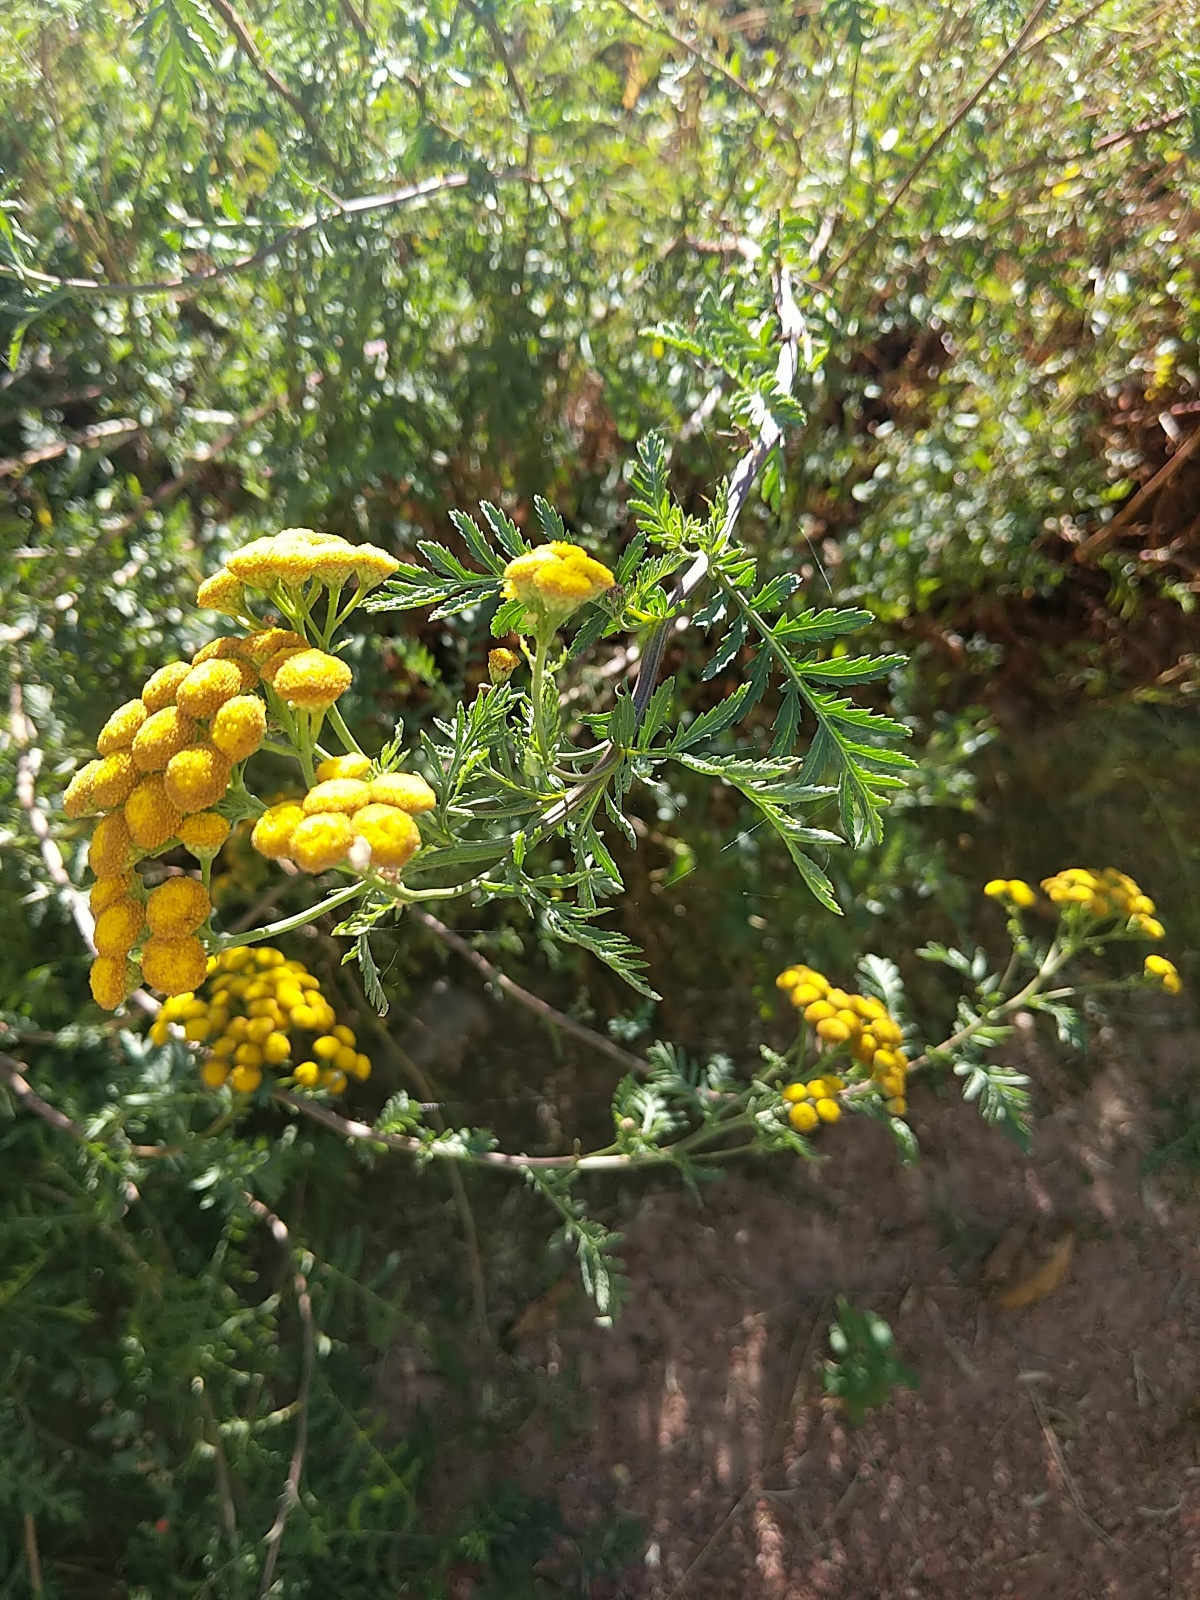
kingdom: Plantae
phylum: Tracheophyta
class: Magnoliopsida
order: Asterales
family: Asteraceae
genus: Tanacetum
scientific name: Tanacetum vulgare
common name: Common tansy
